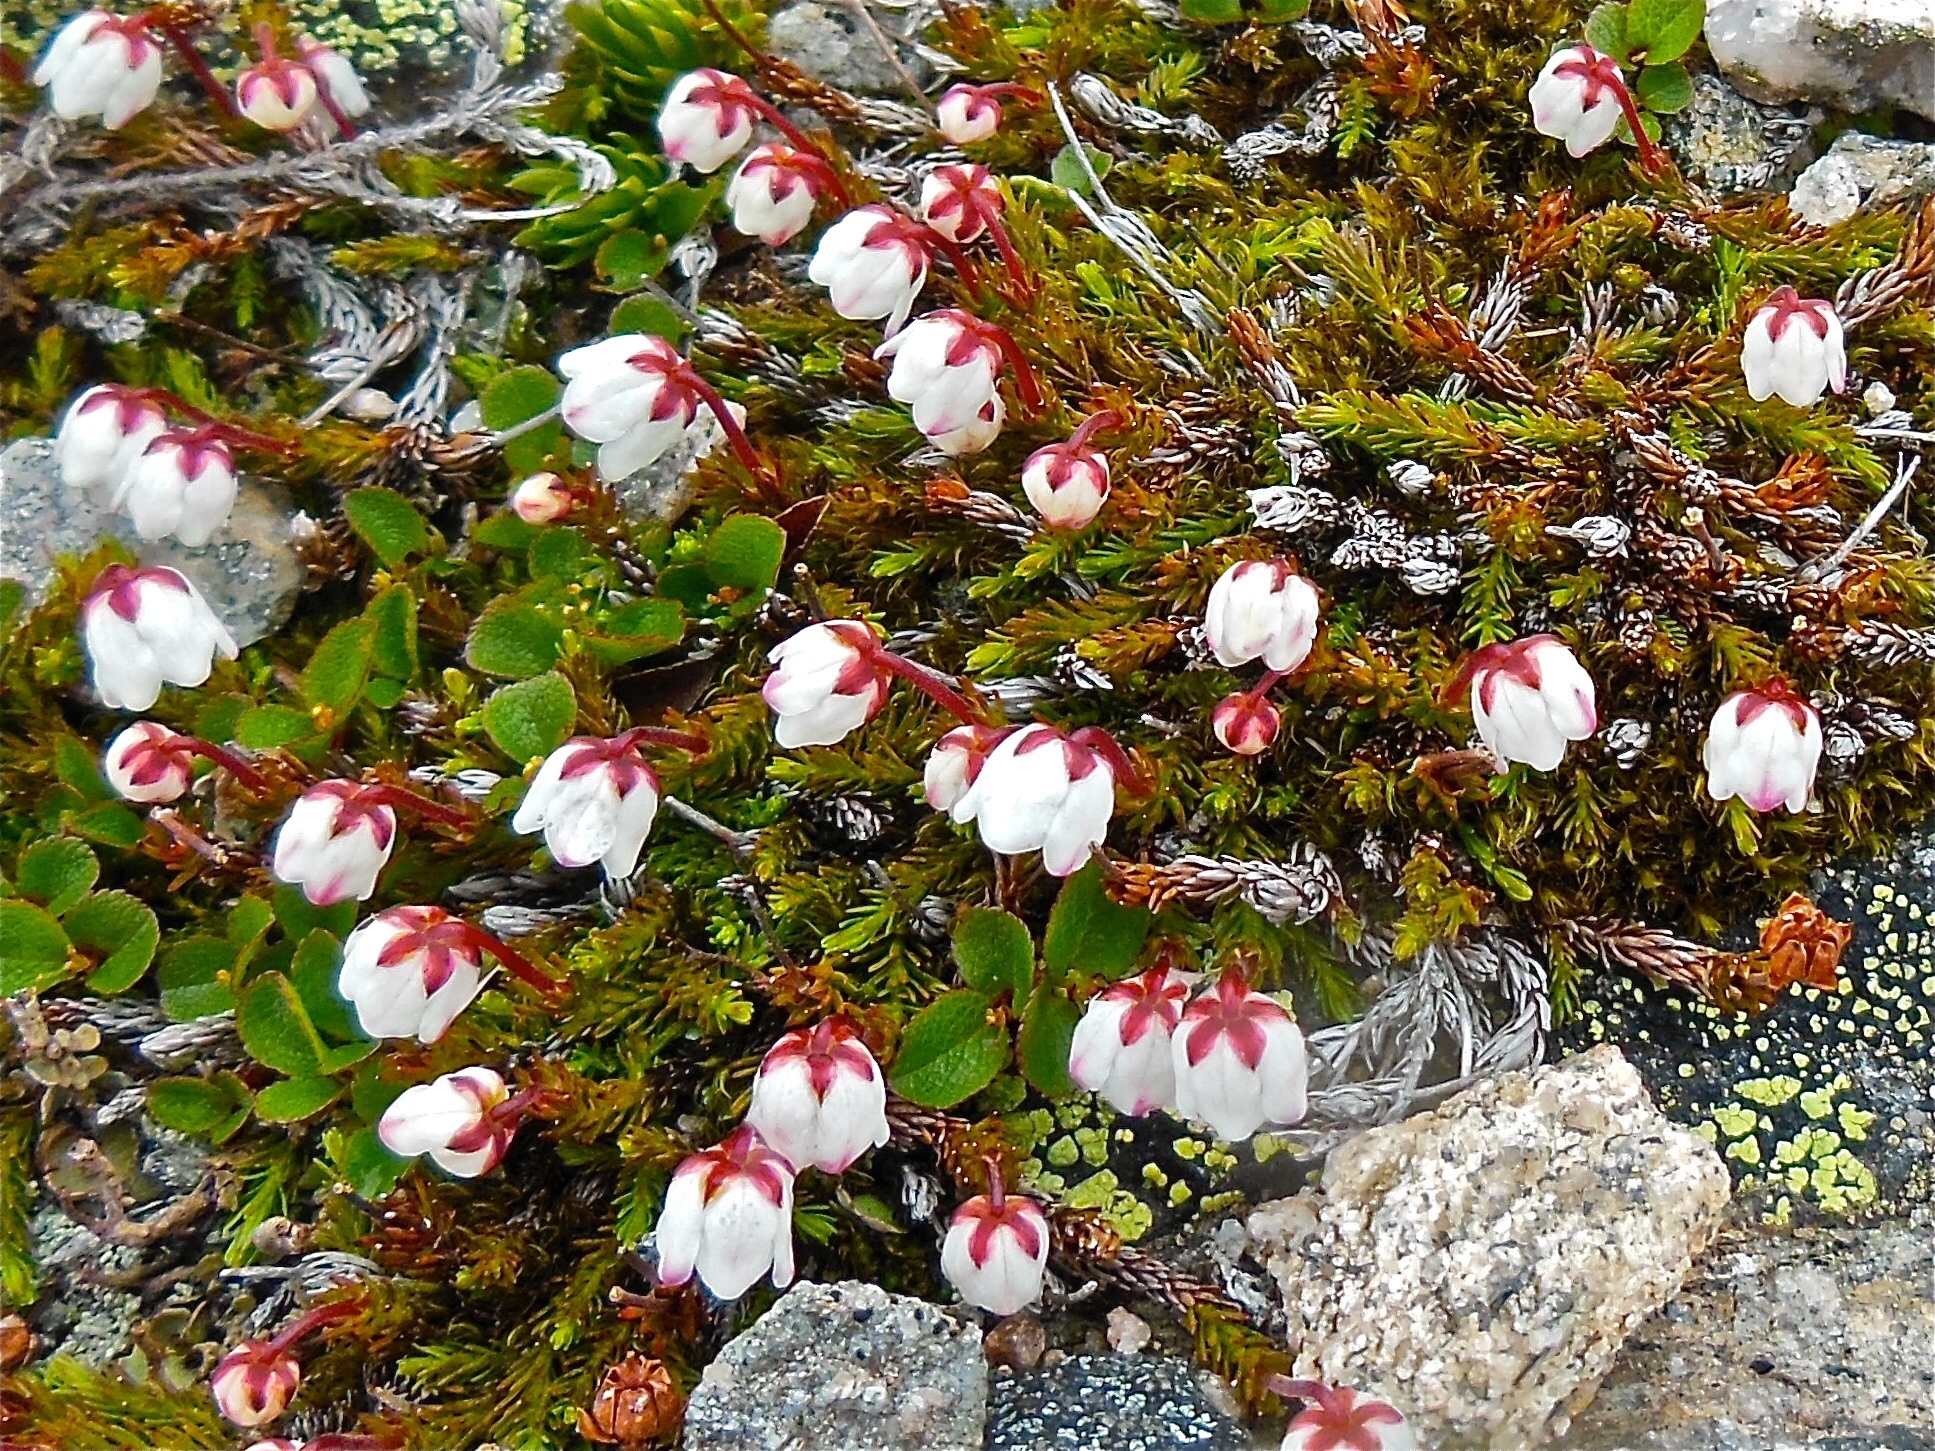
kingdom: Plantae
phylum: Tracheophyta
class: Magnoliopsida
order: Ericales
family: Ericaceae
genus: Harrimanella
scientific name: Harrimanella hypnoides
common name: Moss bell heather
